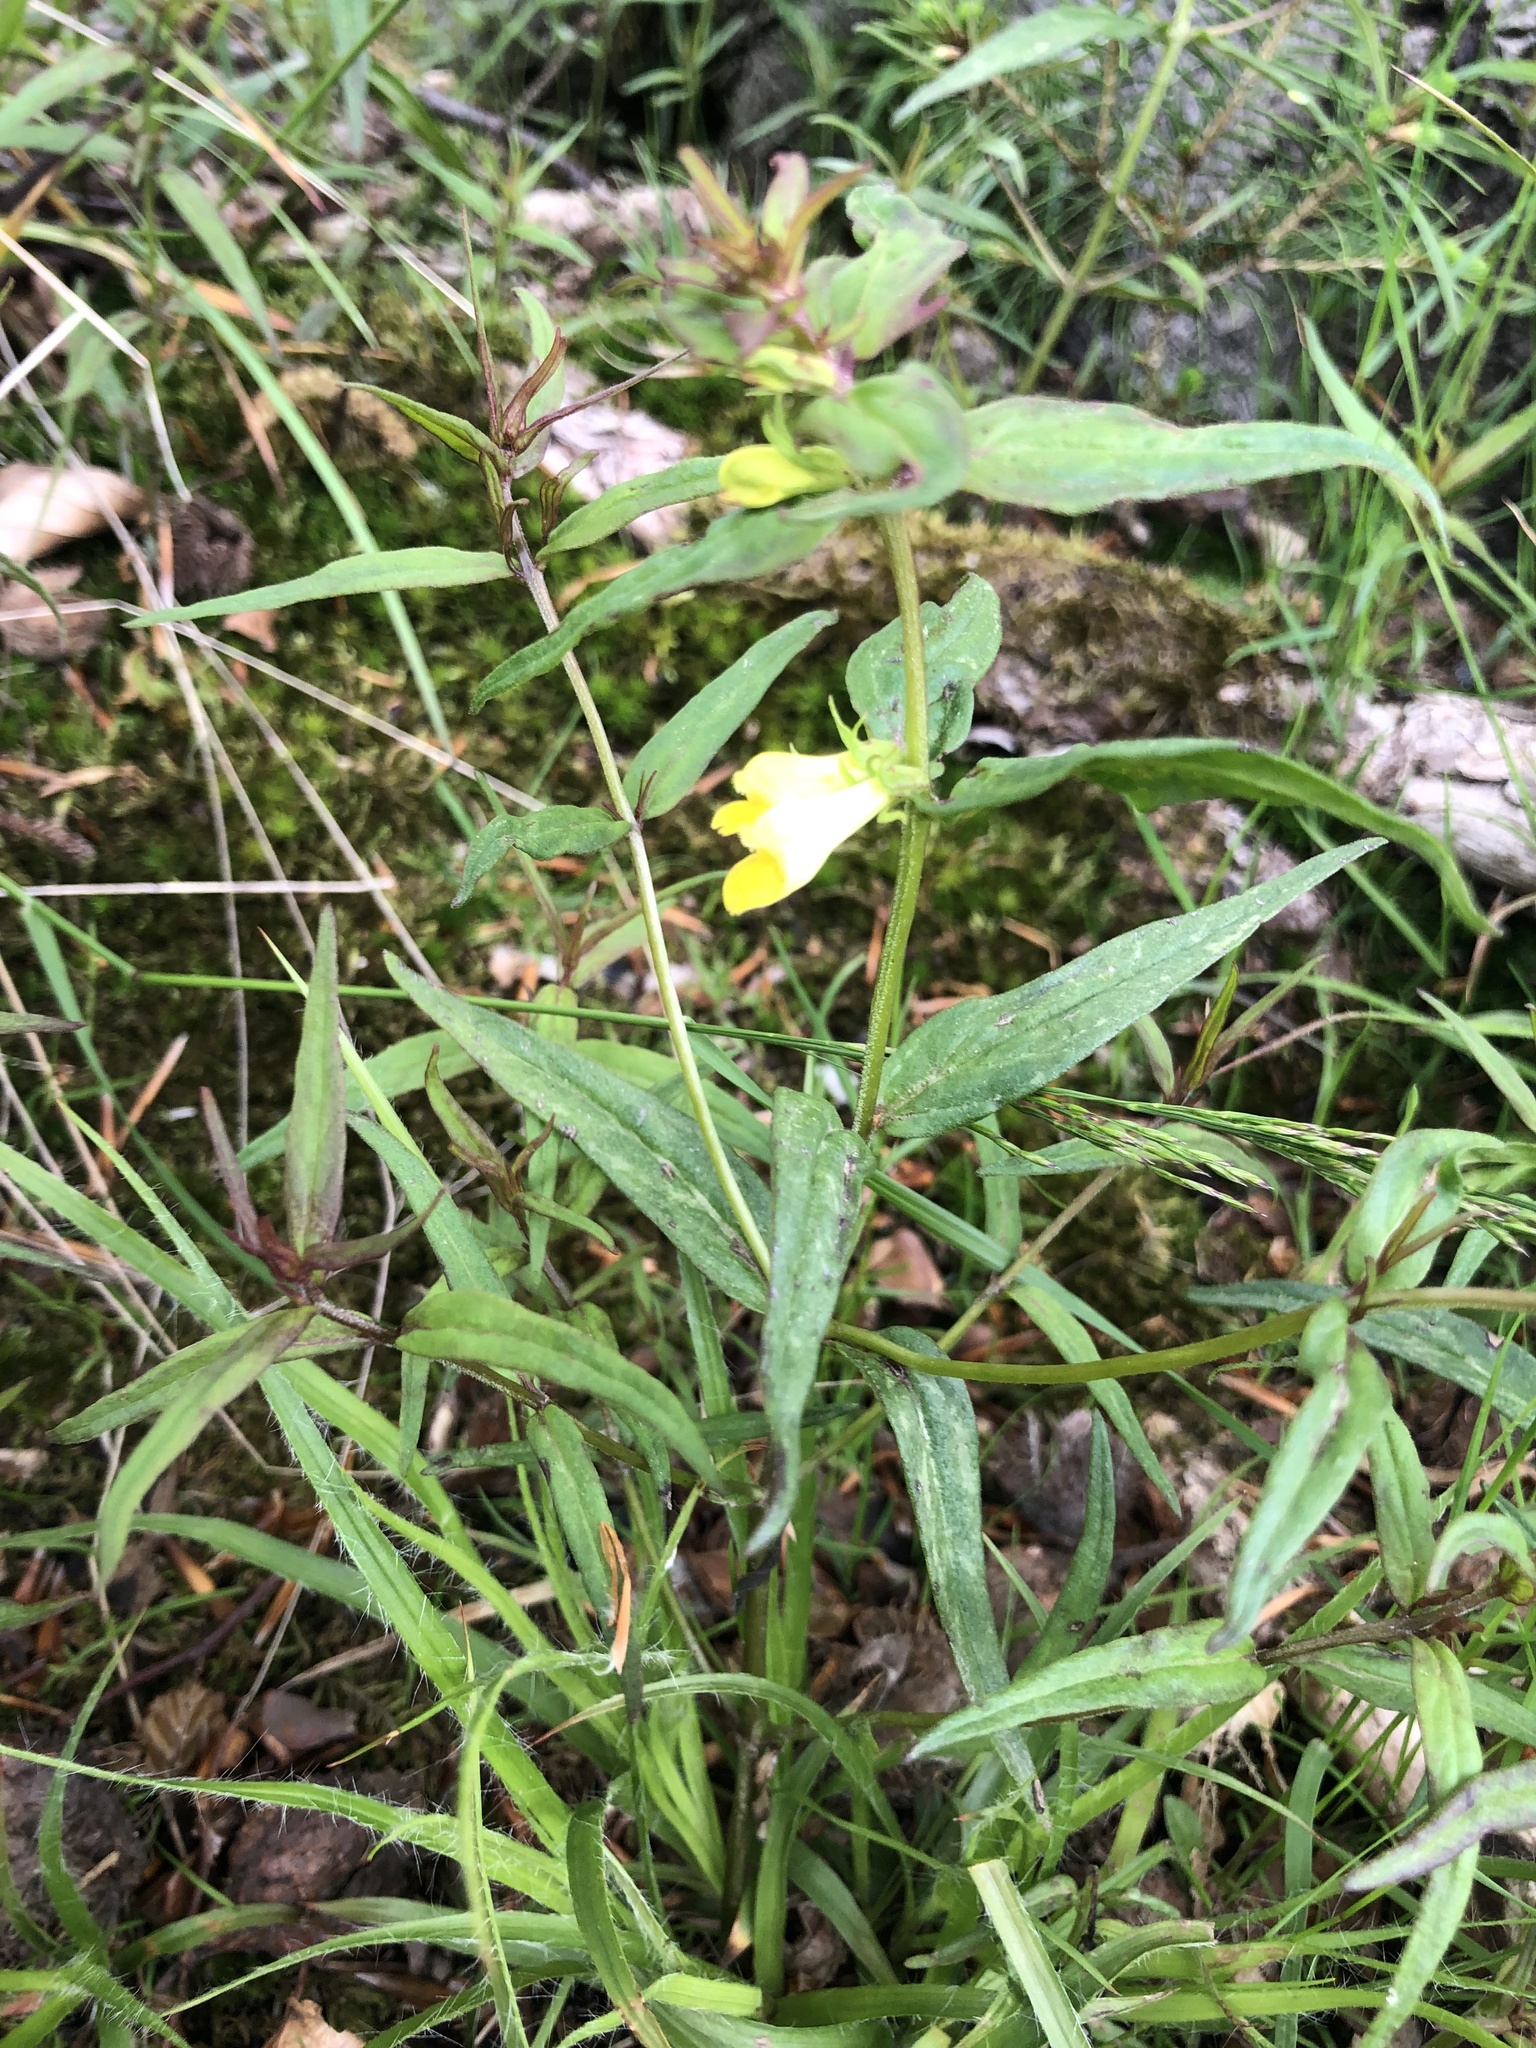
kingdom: Plantae
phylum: Tracheophyta
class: Magnoliopsida
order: Lamiales
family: Orobanchaceae
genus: Melampyrum
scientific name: Melampyrum pratense
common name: Common cow-wheat
